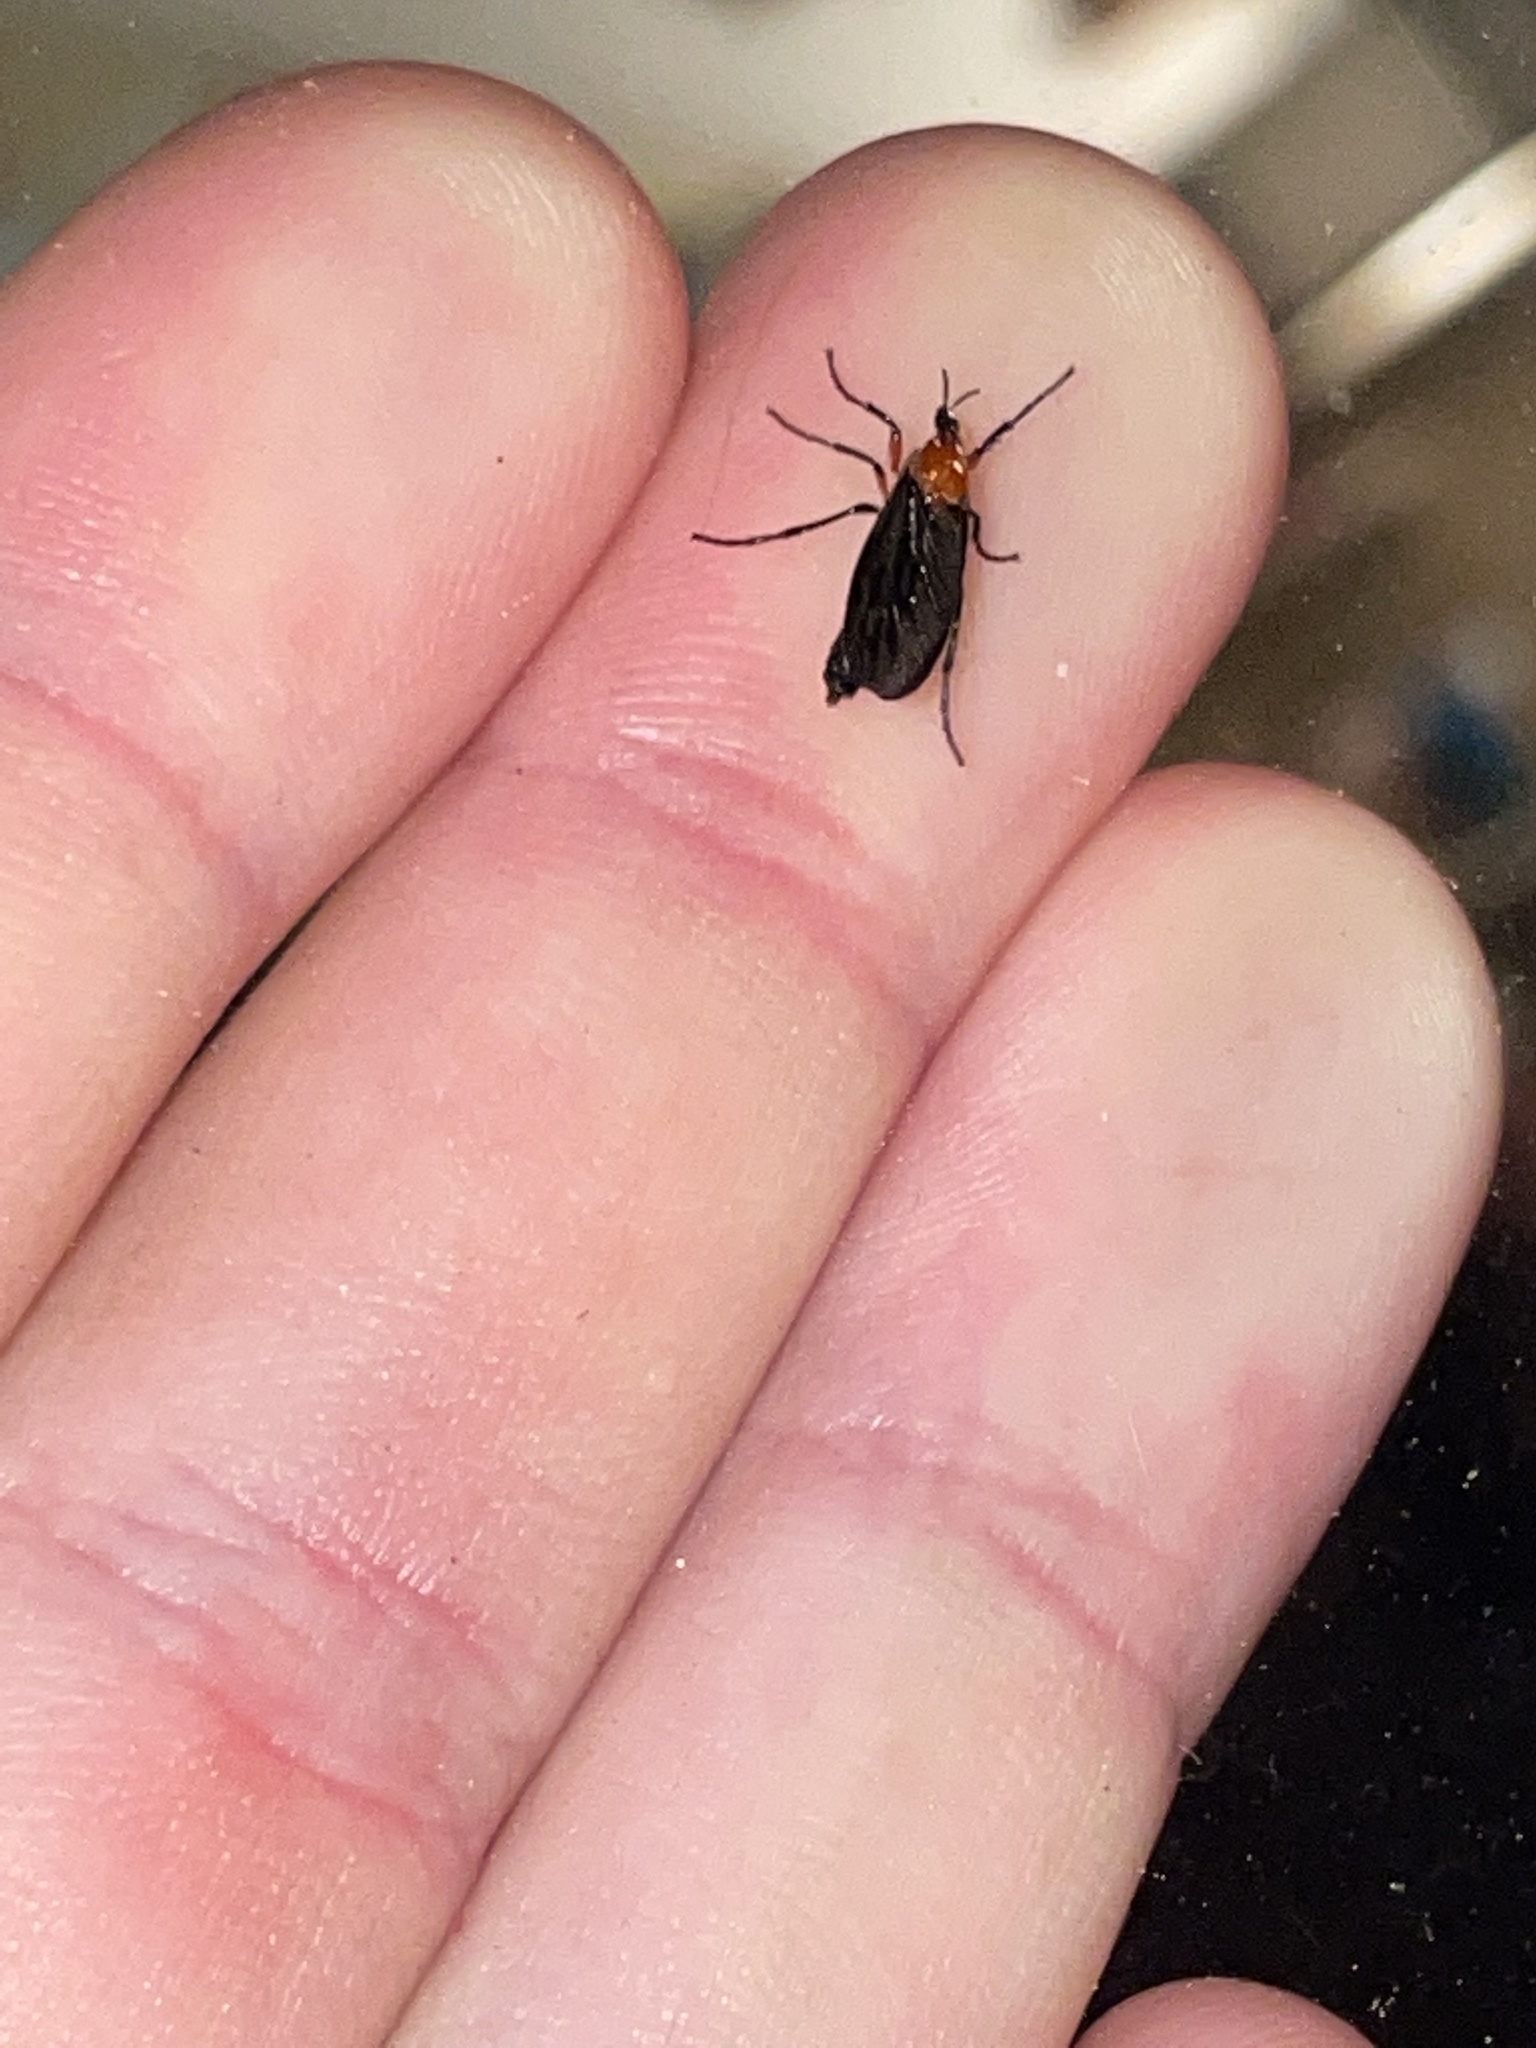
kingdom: Animalia
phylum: Arthropoda
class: Insecta
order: Diptera
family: Bibionidae
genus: Dilophus
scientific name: Dilophus spinipes
